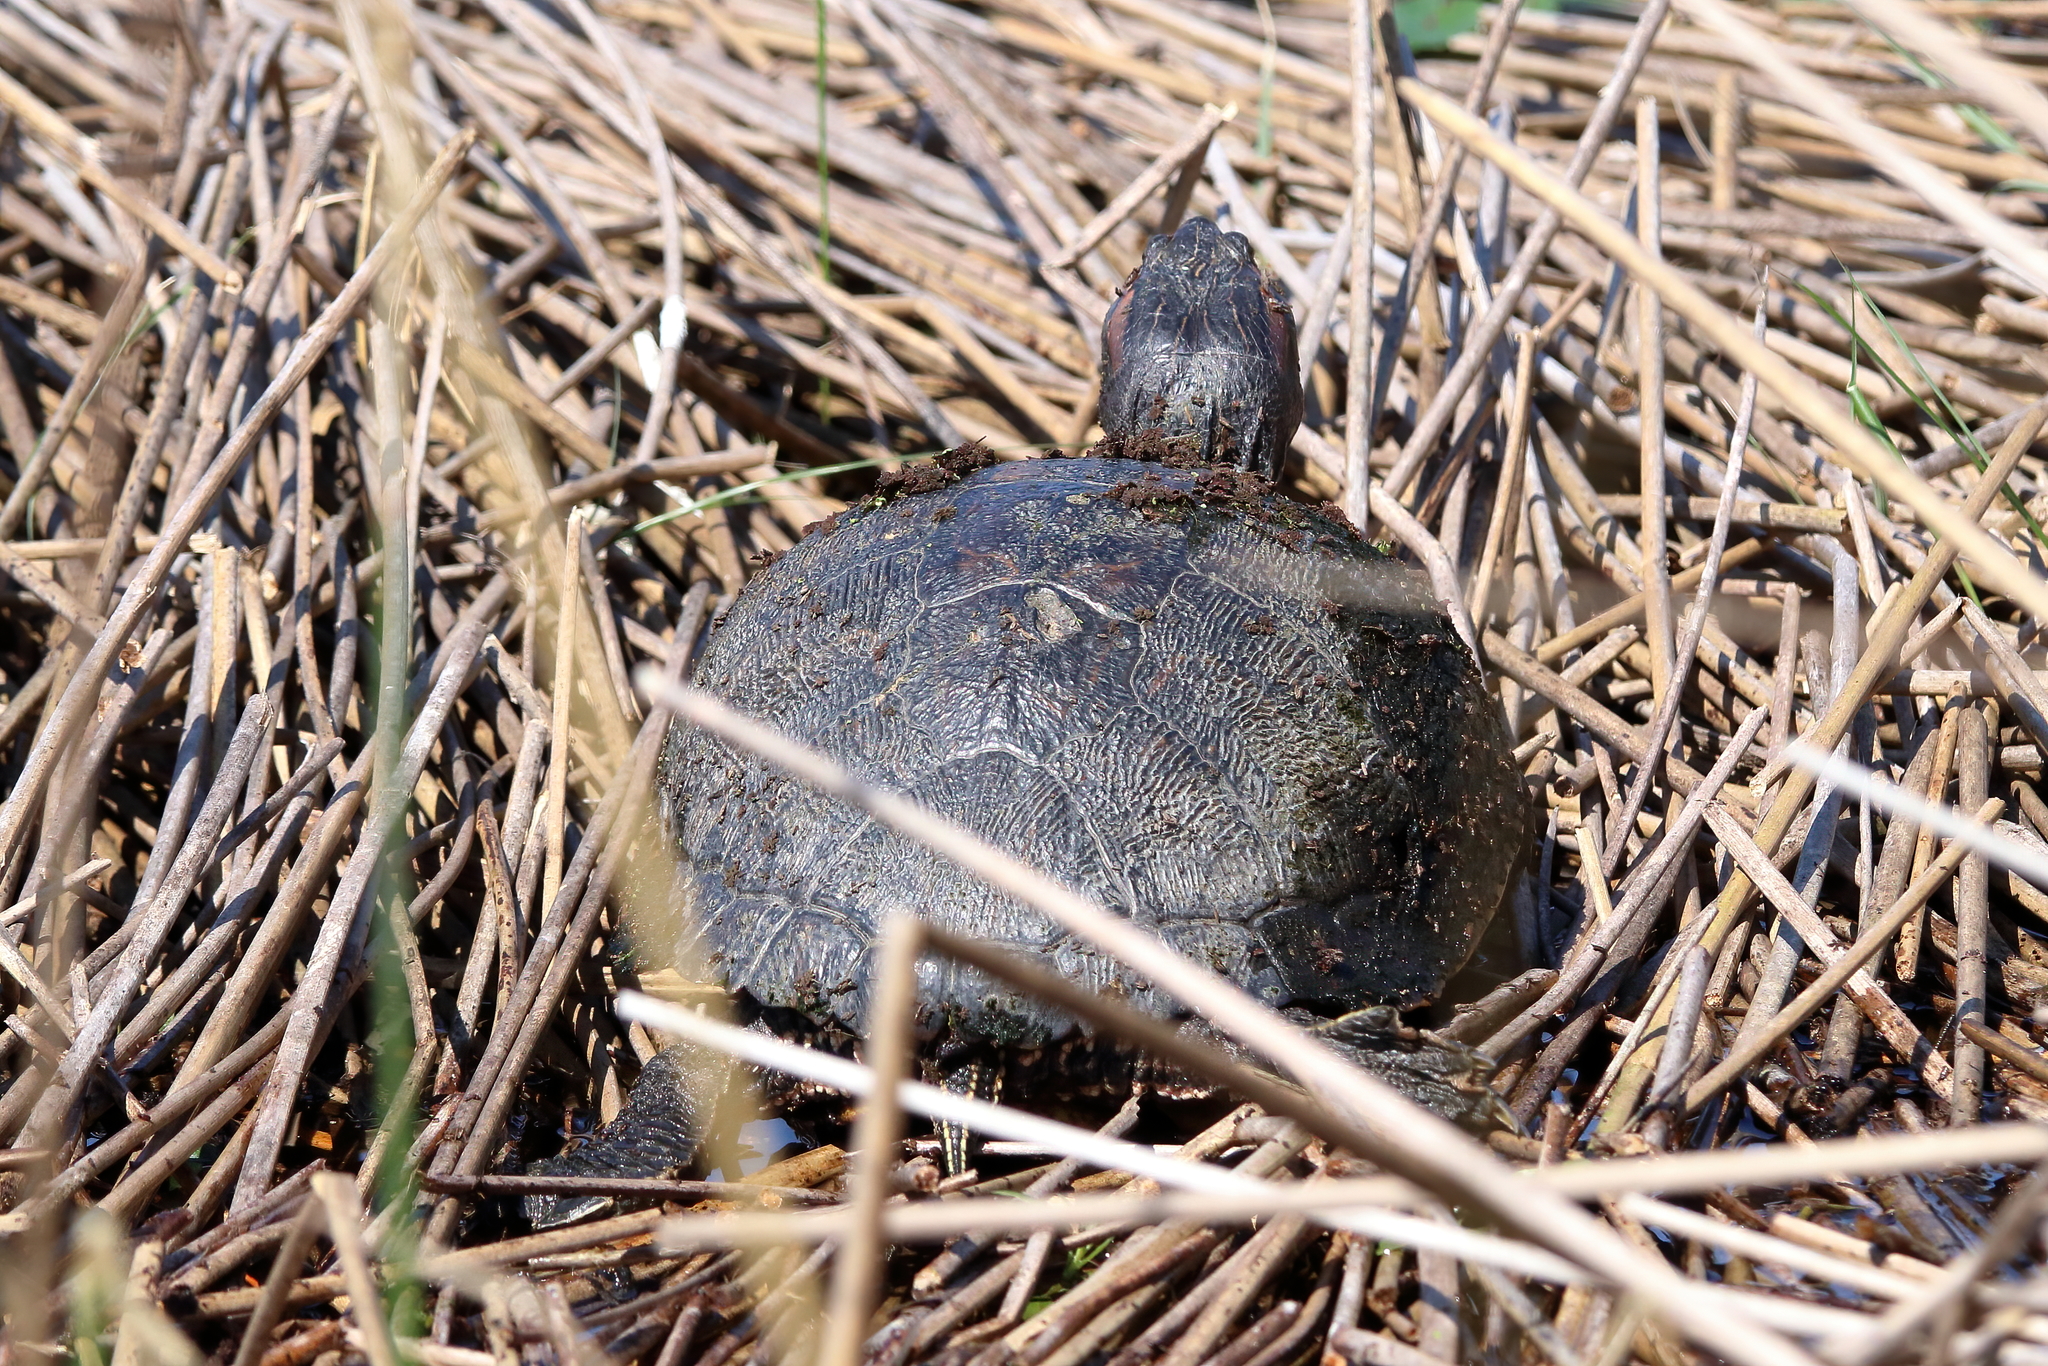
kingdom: Animalia
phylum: Chordata
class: Testudines
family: Emydidae
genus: Trachemys
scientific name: Trachemys scripta
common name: Slider
